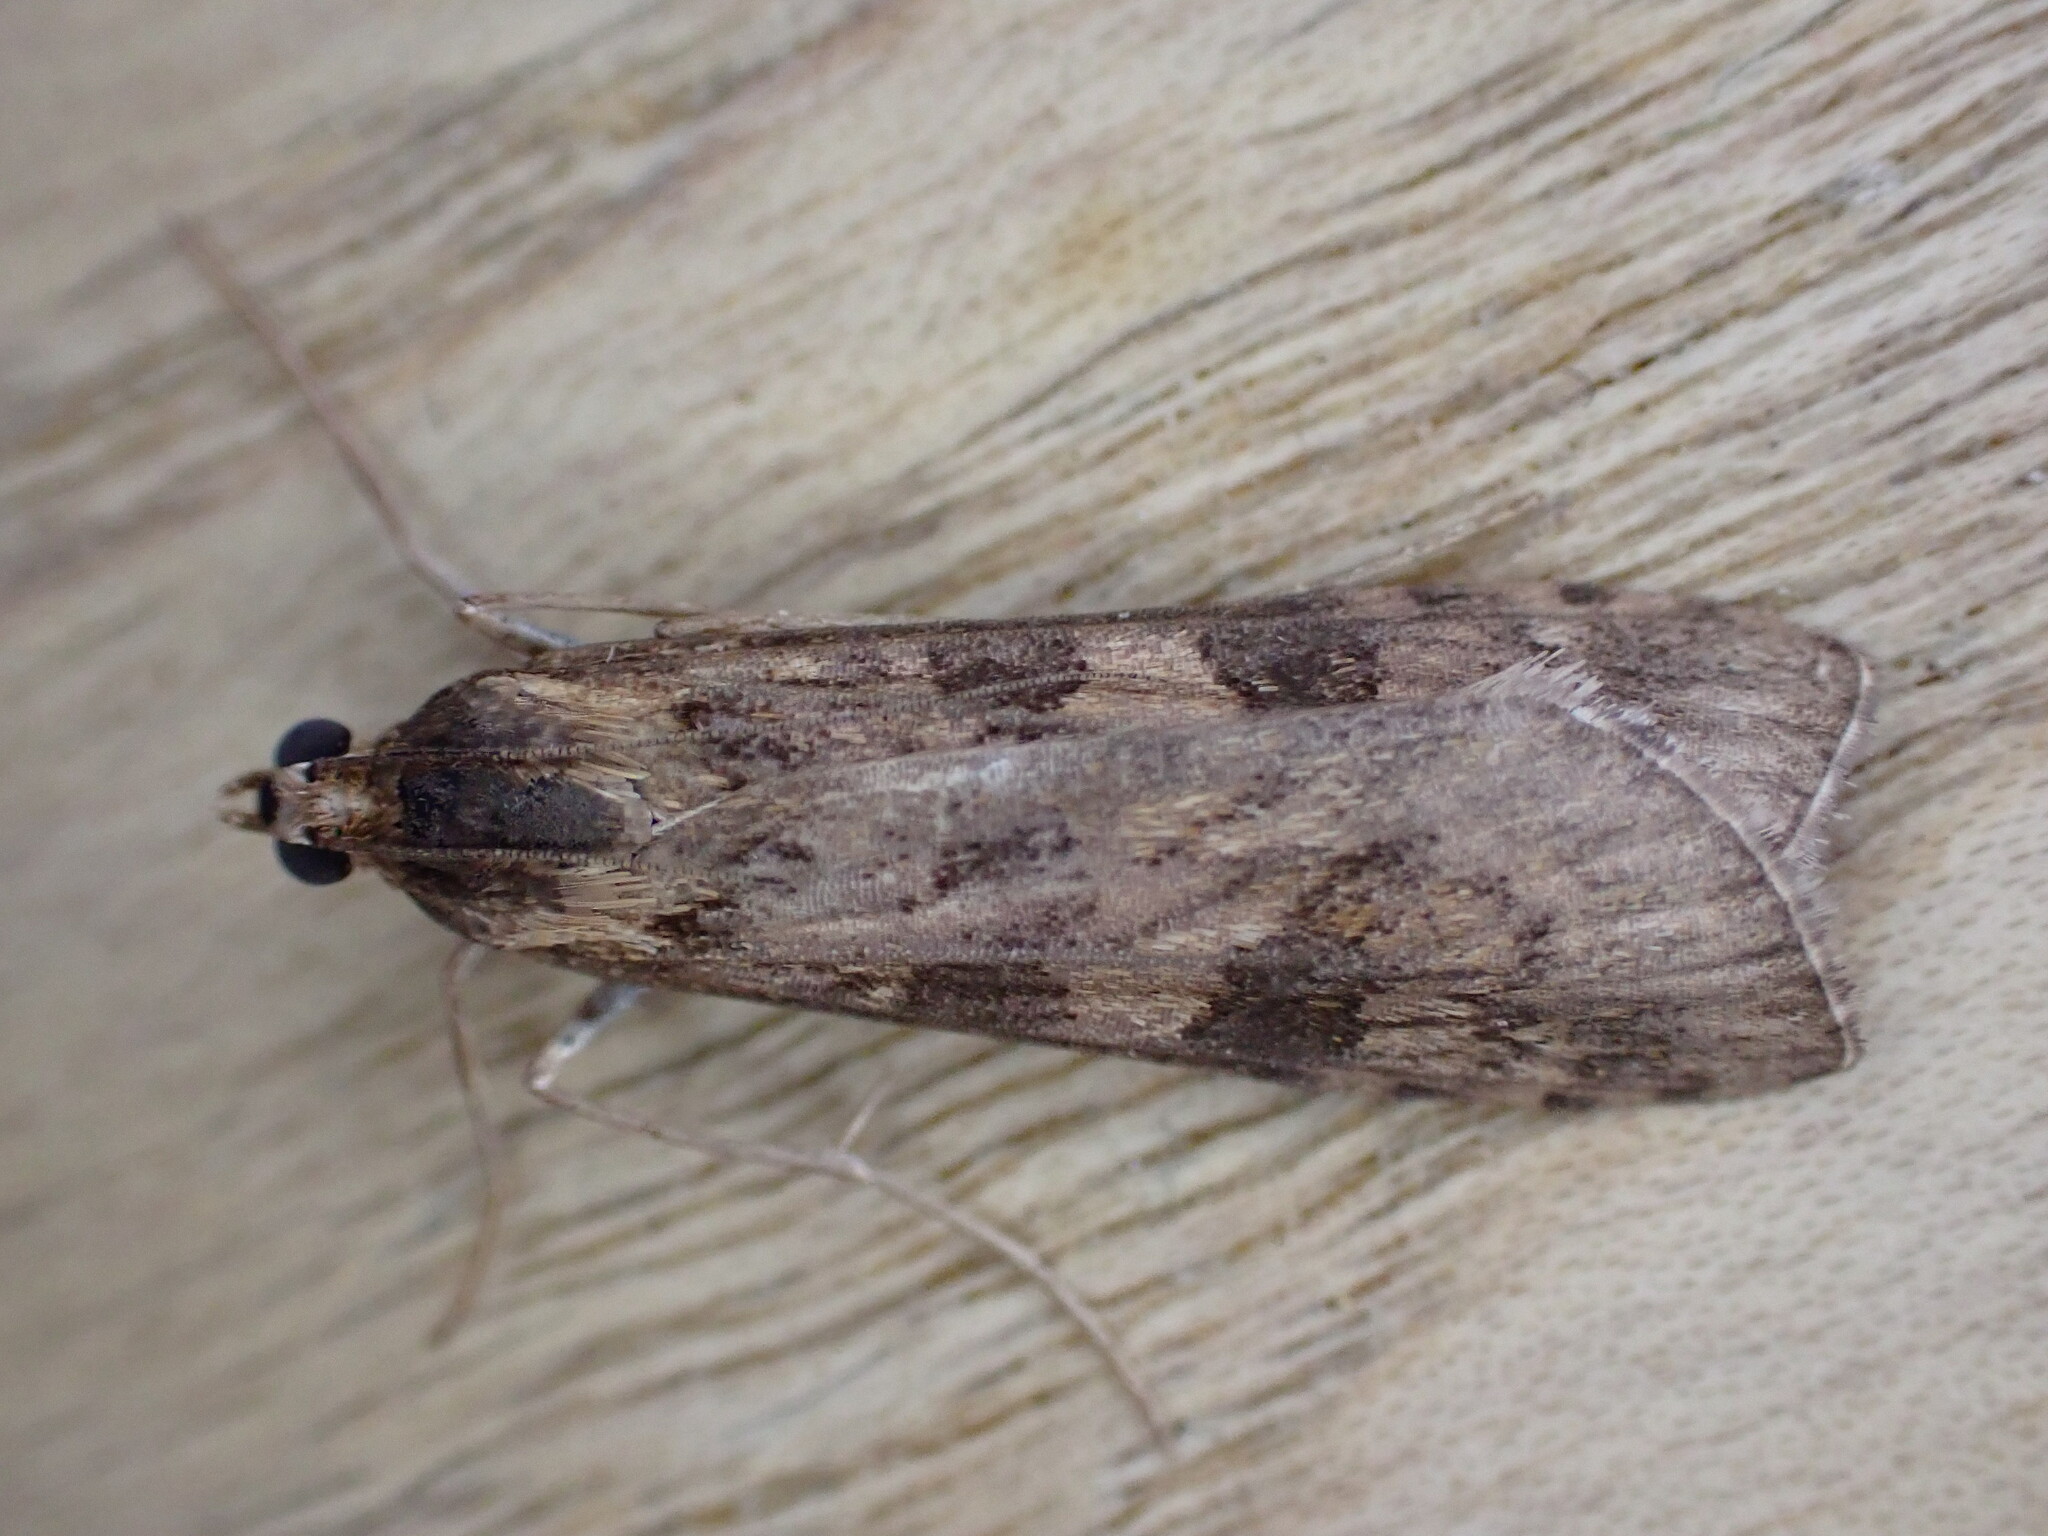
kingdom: Animalia
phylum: Arthropoda
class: Insecta
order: Lepidoptera
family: Crambidae
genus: Nomophila
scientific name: Nomophila noctuella
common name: Rush veneer
